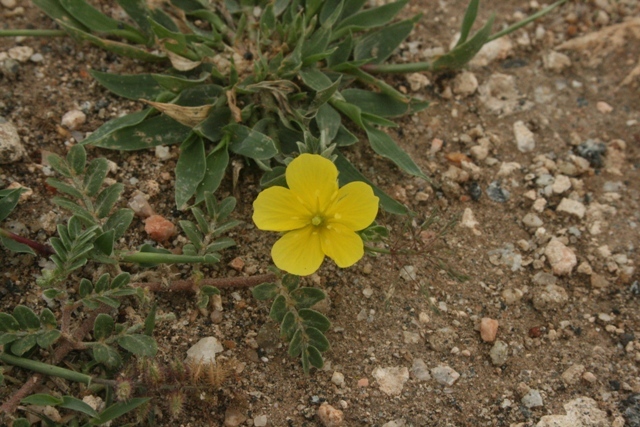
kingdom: Plantae
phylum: Tracheophyta
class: Magnoliopsida
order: Zygophyllales
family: Zygophyllaceae
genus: Tribulus
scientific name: Tribulus terrestris
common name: Puncturevine
